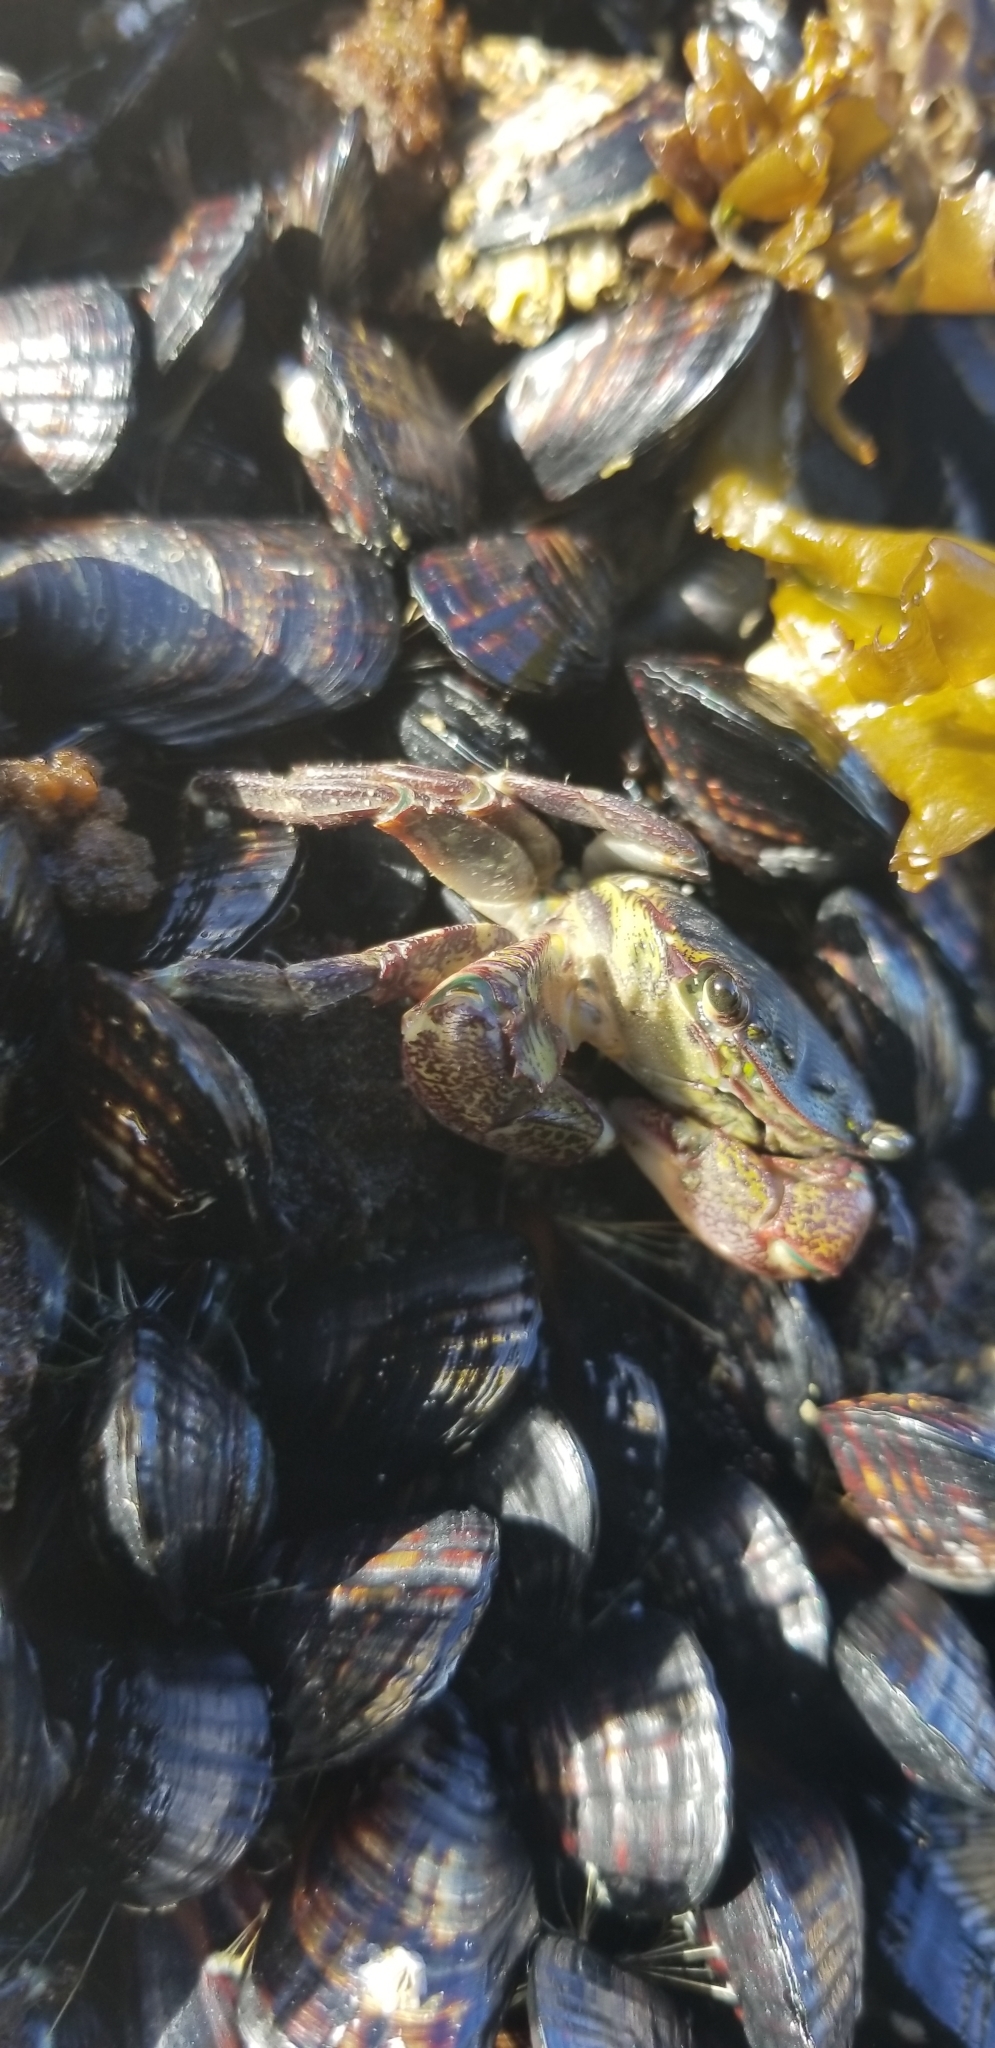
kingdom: Animalia
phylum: Arthropoda
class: Malacostraca
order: Decapoda
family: Grapsidae
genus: Pachygrapsus
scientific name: Pachygrapsus crassipes
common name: Striped shore crab
